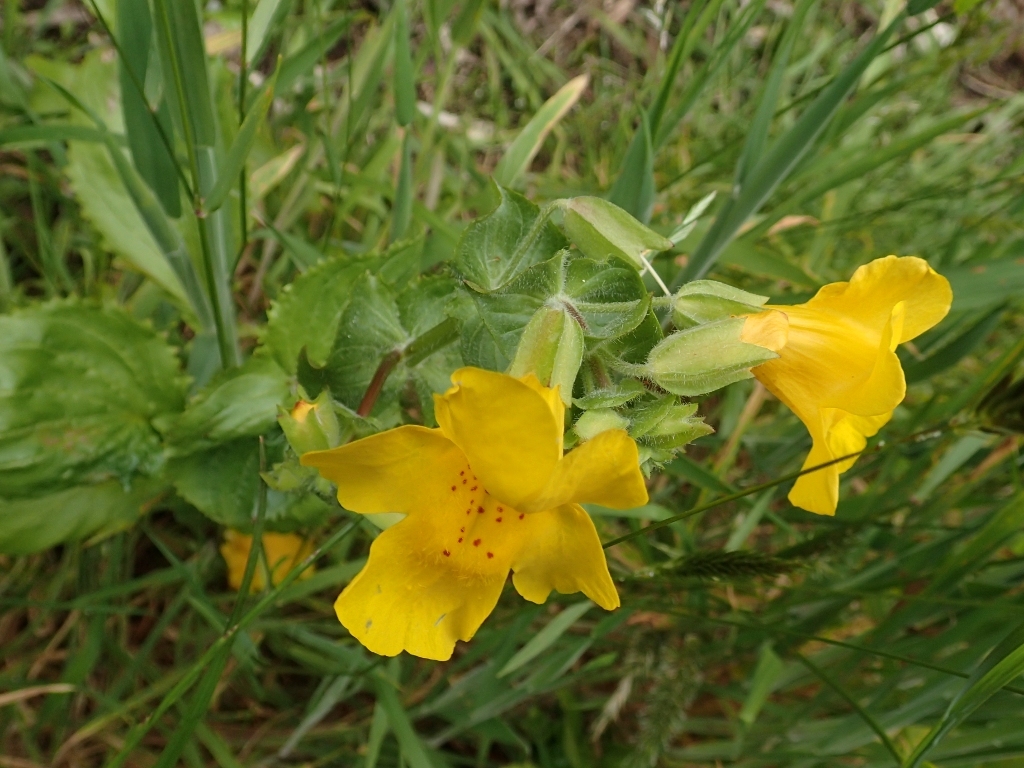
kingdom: Plantae
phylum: Tracheophyta
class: Magnoliopsida
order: Lamiales
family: Phrymaceae
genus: Erythranthe
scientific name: Erythranthe guttata
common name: Monkeyflower
